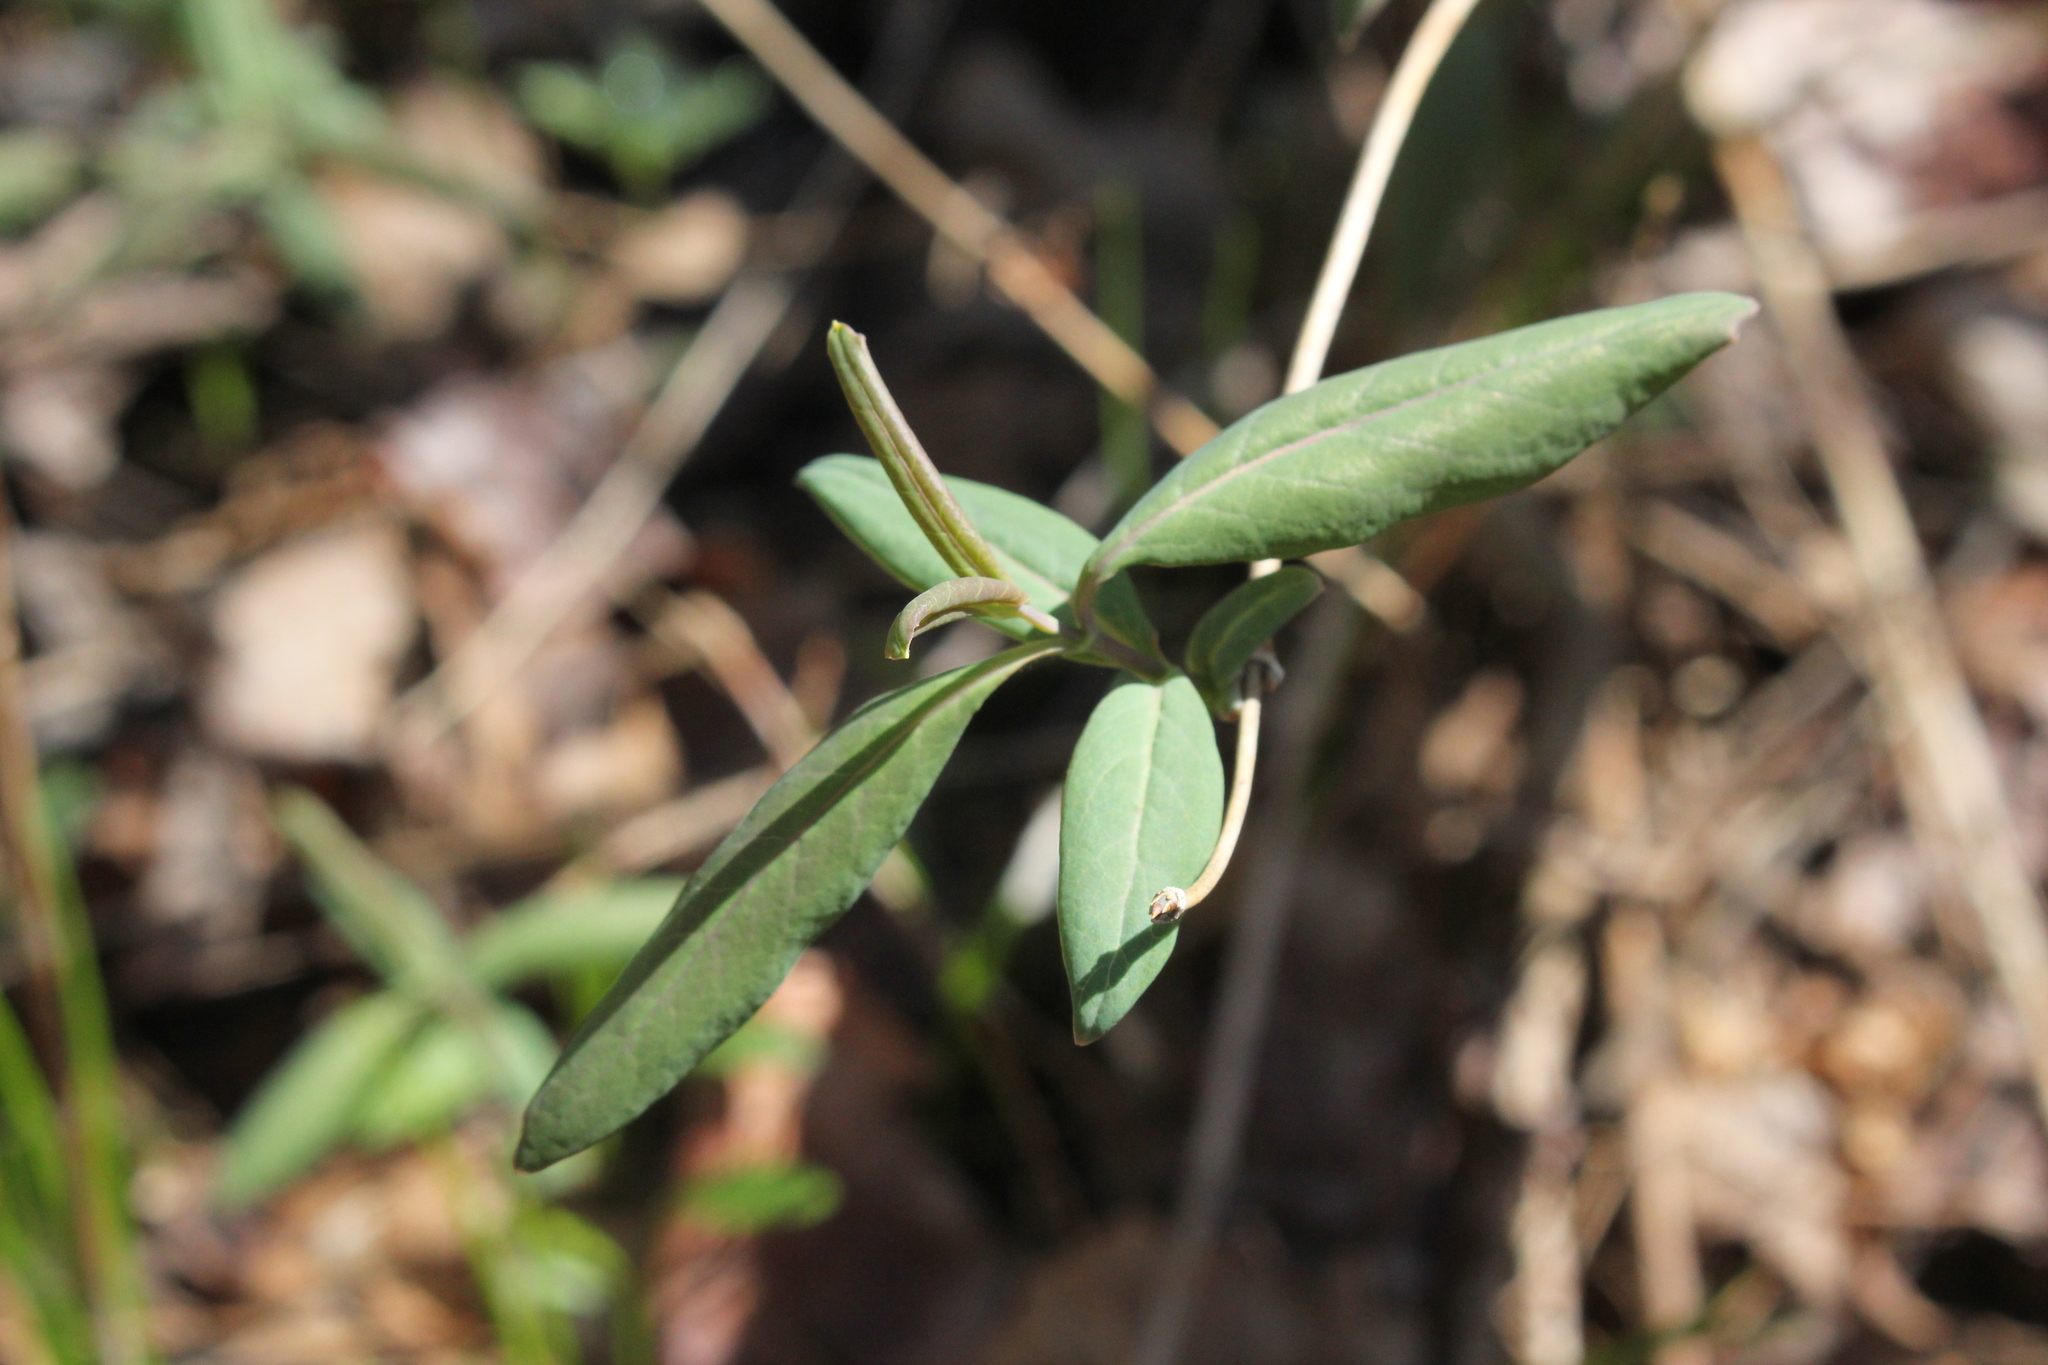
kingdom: Plantae
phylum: Tracheophyta
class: Magnoliopsida
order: Dipsacales
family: Caprifoliaceae
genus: Lonicera
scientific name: Lonicera dioica
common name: Limber honeysuckle
